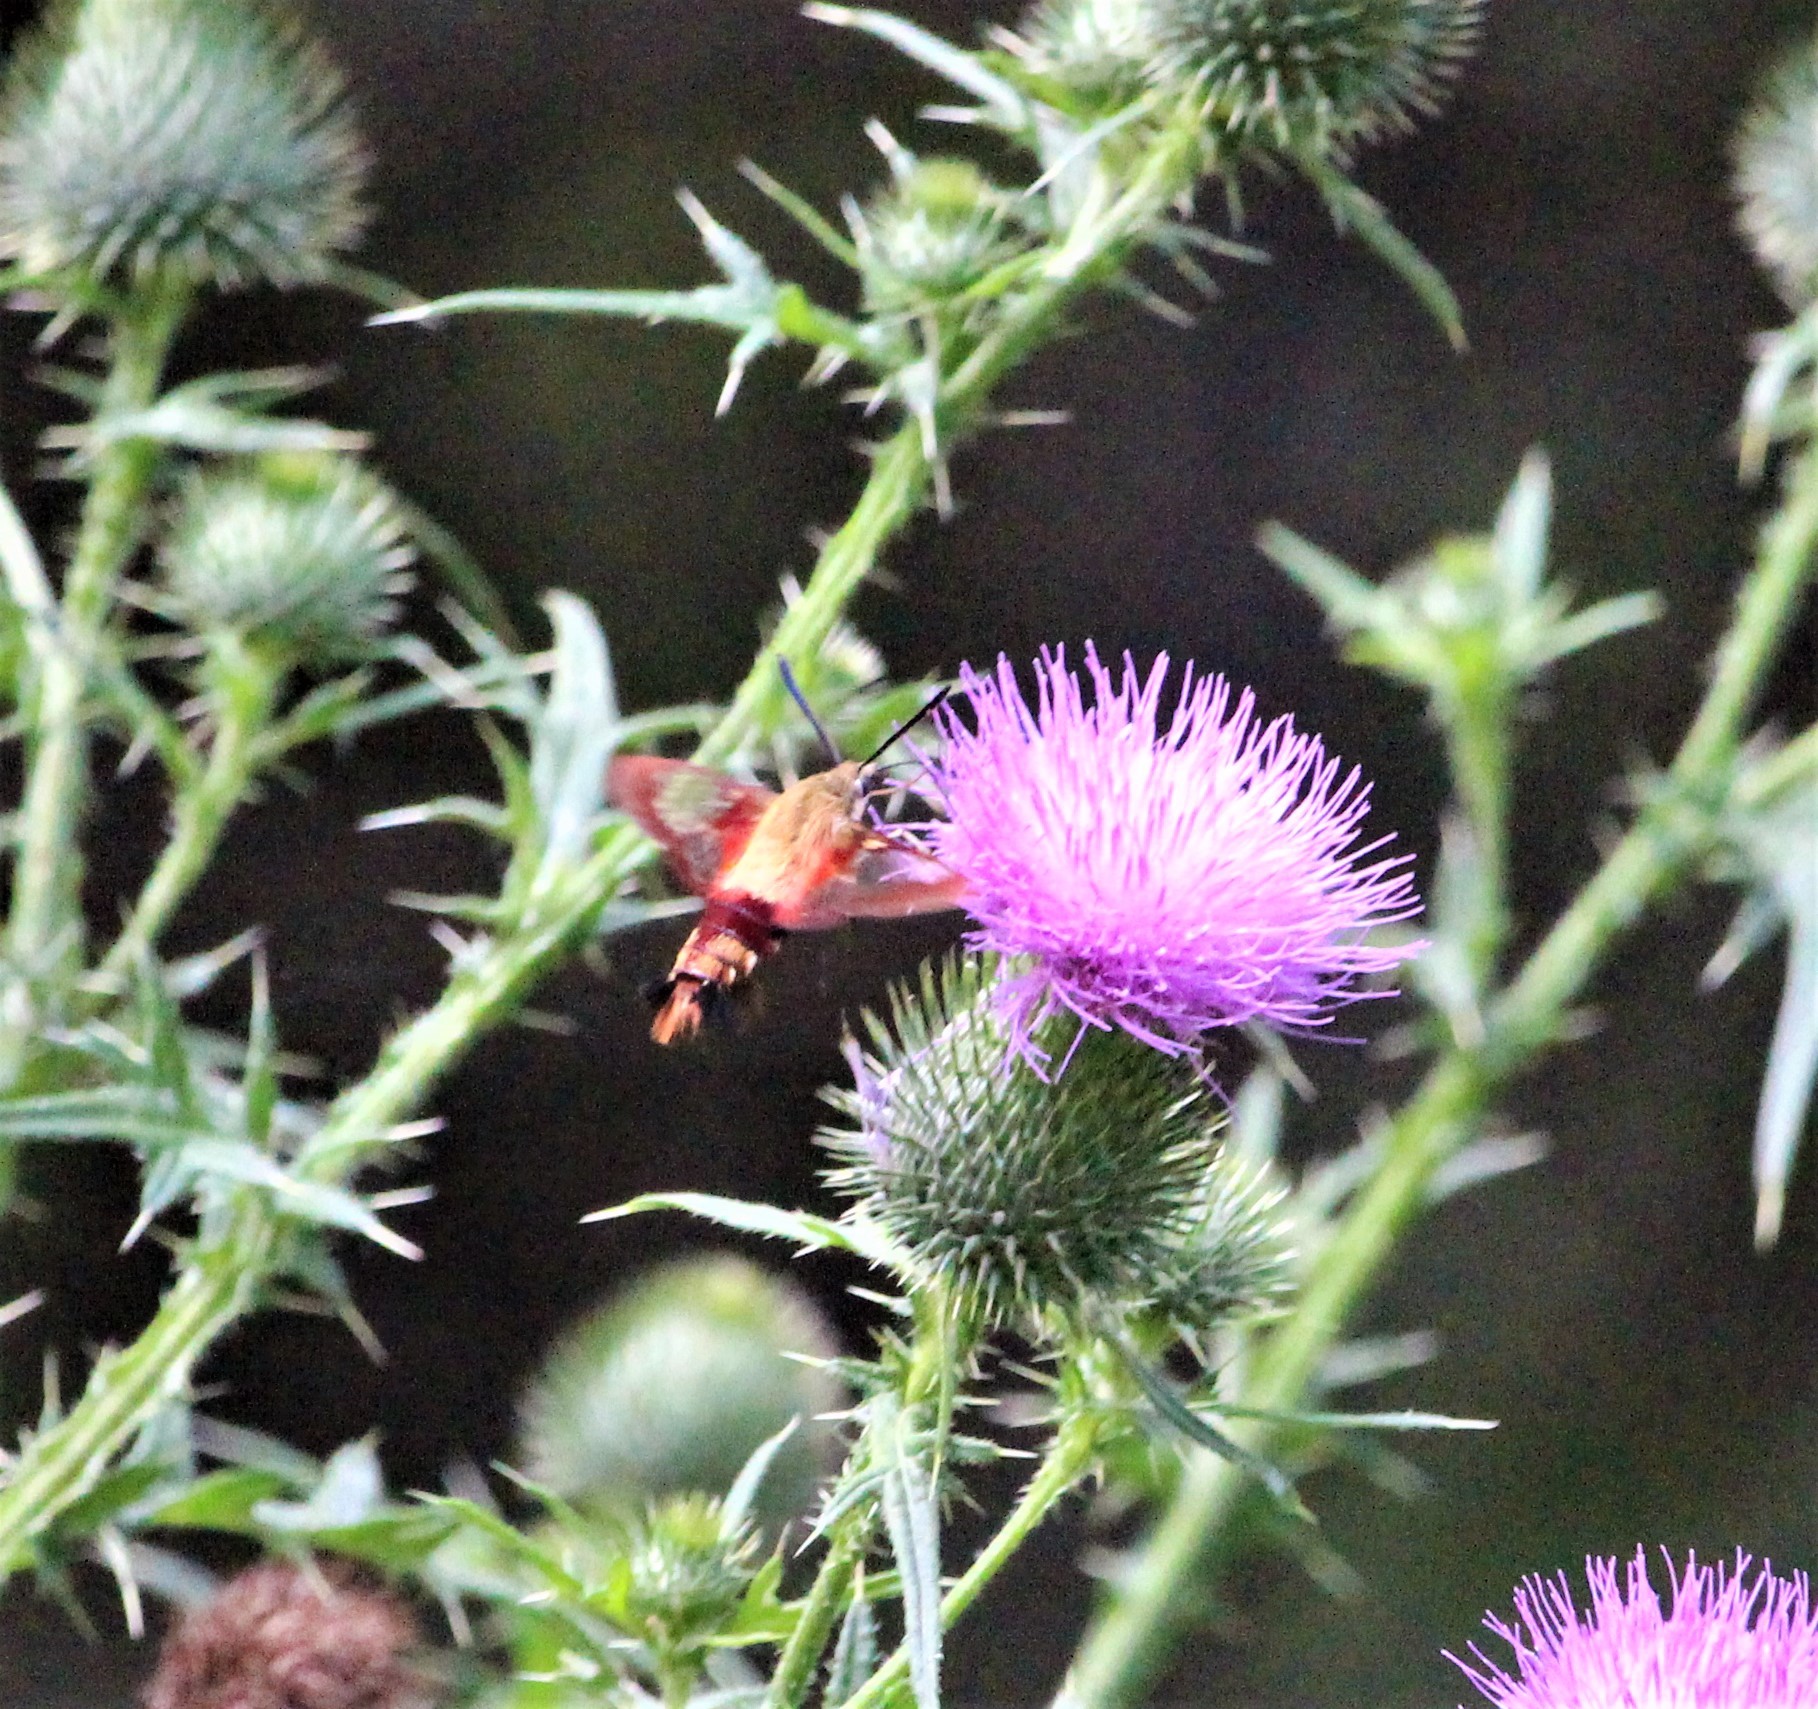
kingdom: Animalia
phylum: Arthropoda
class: Insecta
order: Lepidoptera
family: Sphingidae
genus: Hemaris
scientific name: Hemaris thysbe
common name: Common clear-wing
